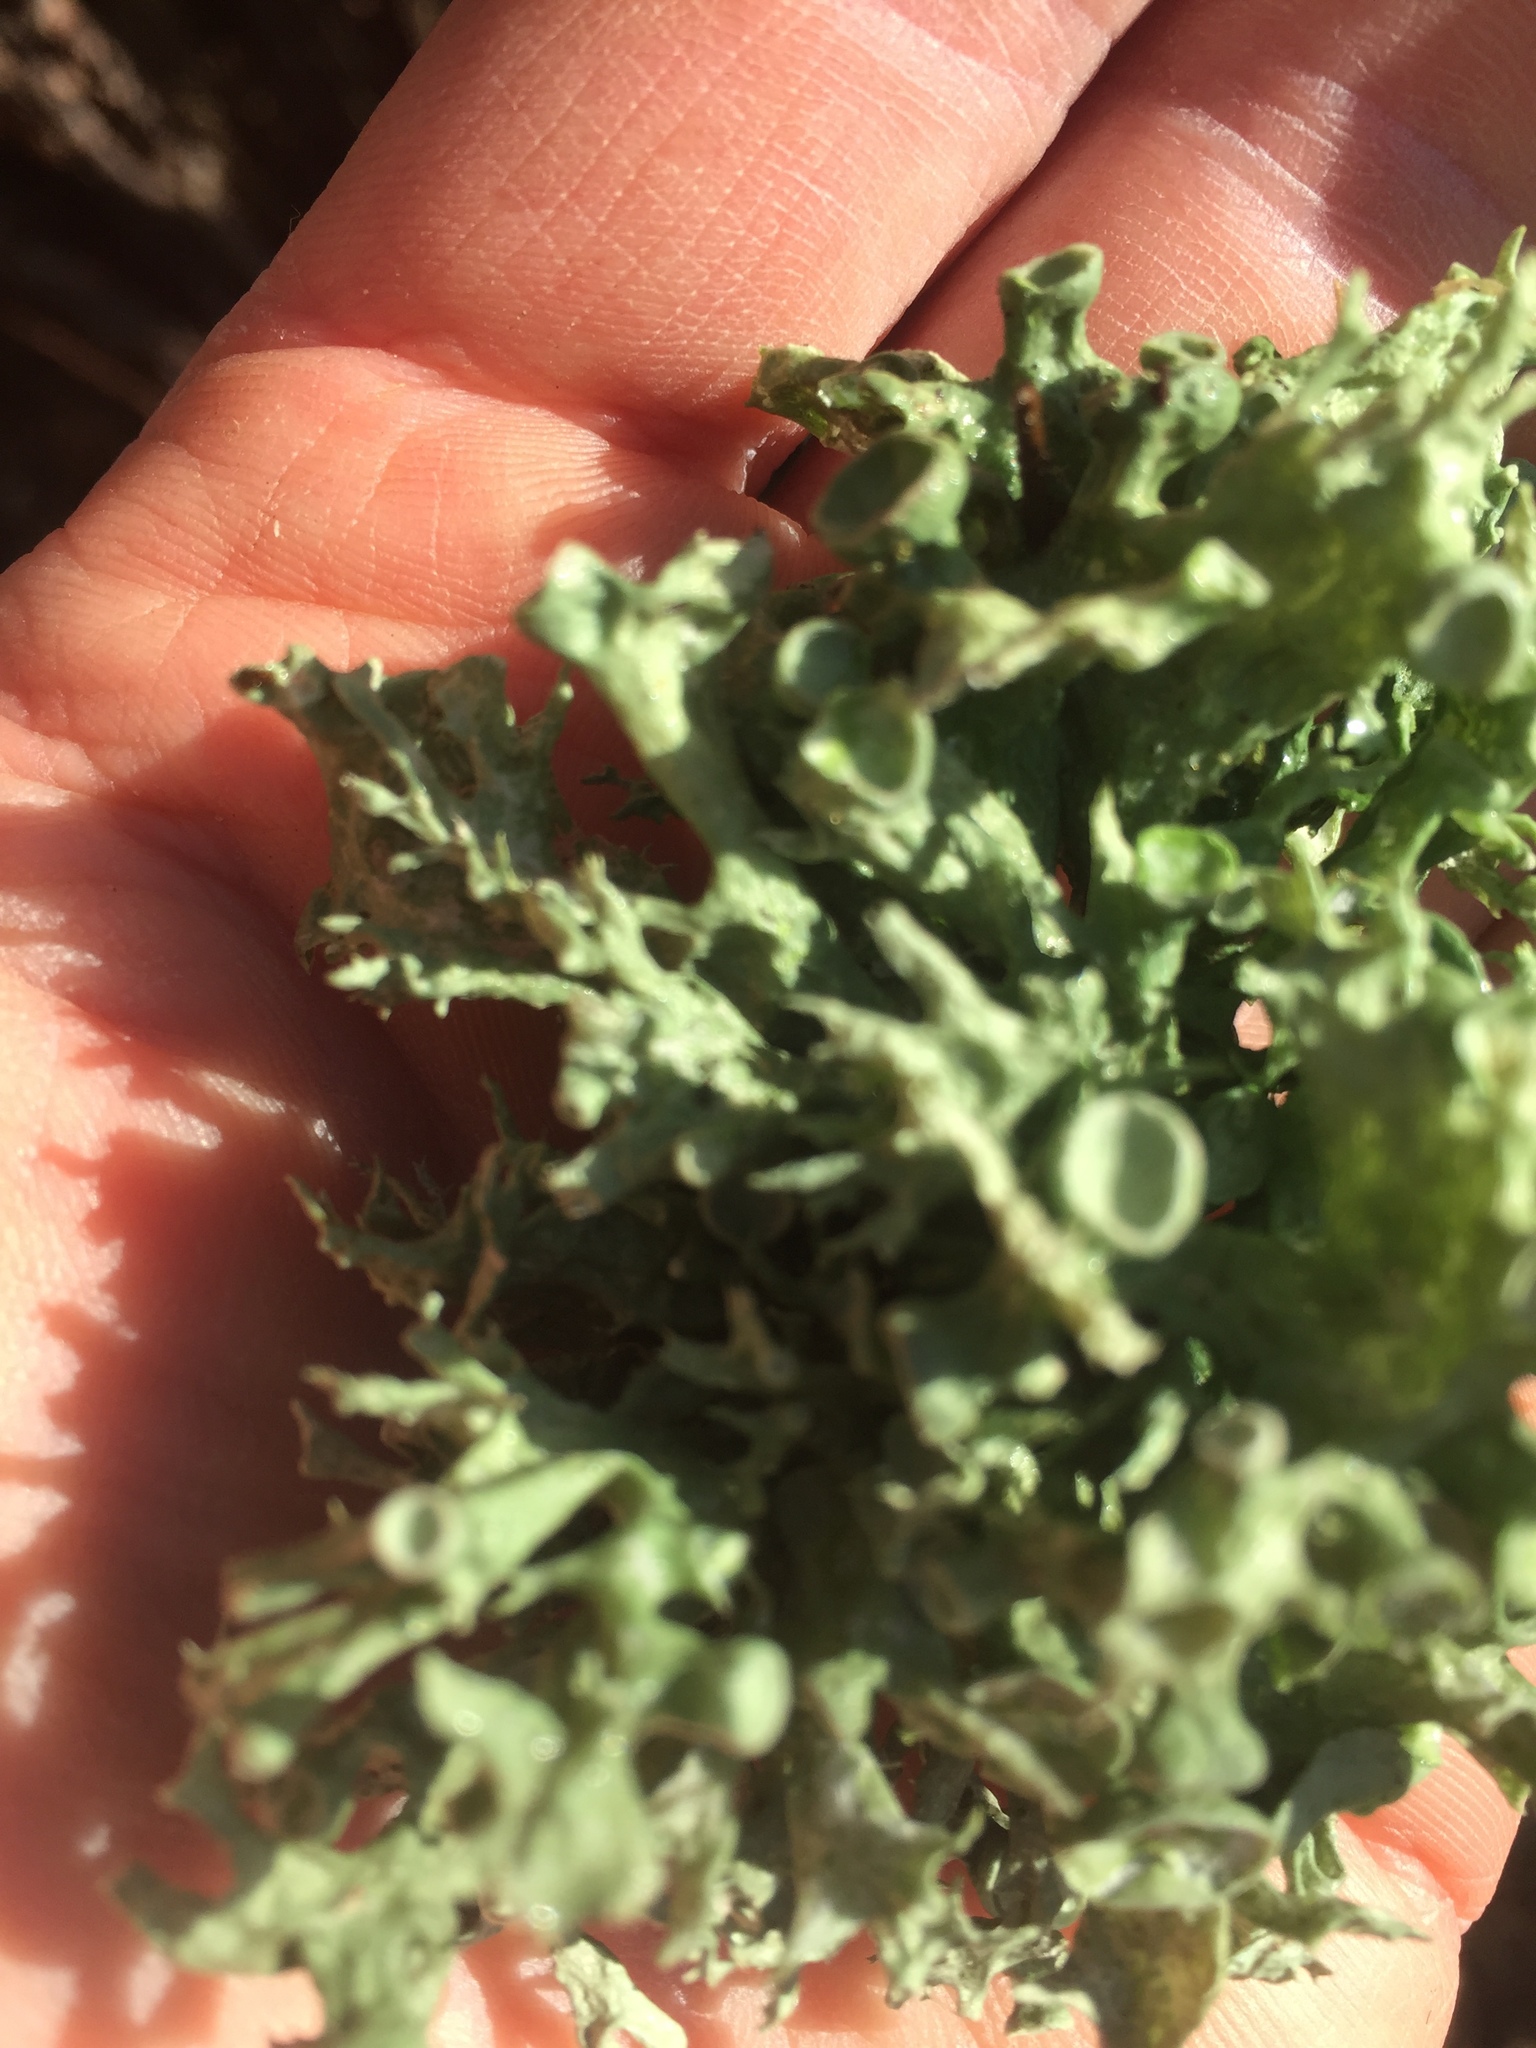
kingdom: Fungi
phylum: Ascomycota
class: Lecanoromycetes
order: Lecanorales
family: Ramalinaceae
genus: Ramalina
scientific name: Ramalina fastigiata
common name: Dotted ribbon lichen
